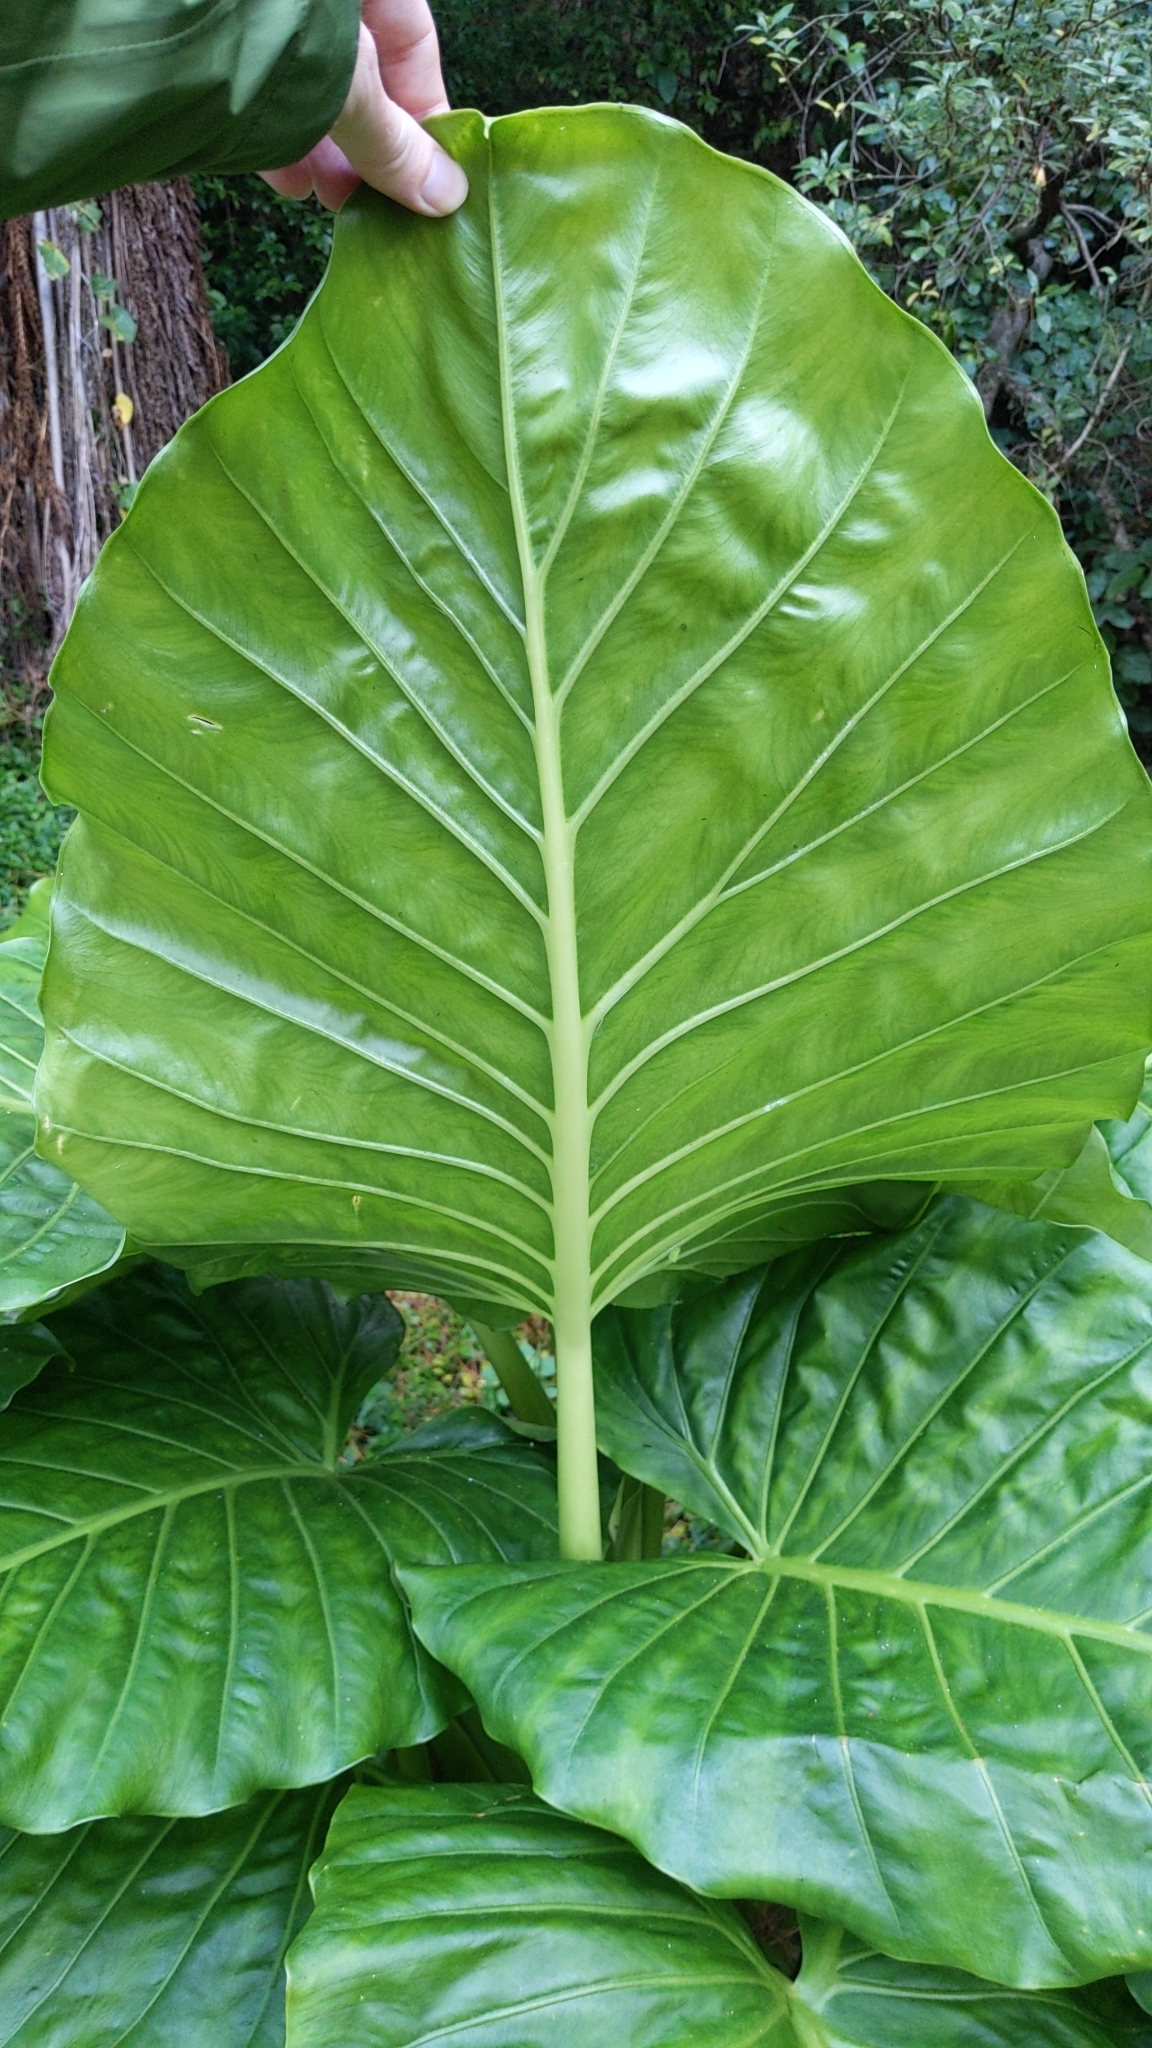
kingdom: Plantae
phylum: Tracheophyta
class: Liliopsida
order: Alismatales
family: Araceae
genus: Alocasia
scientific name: Alocasia brisbanensis
